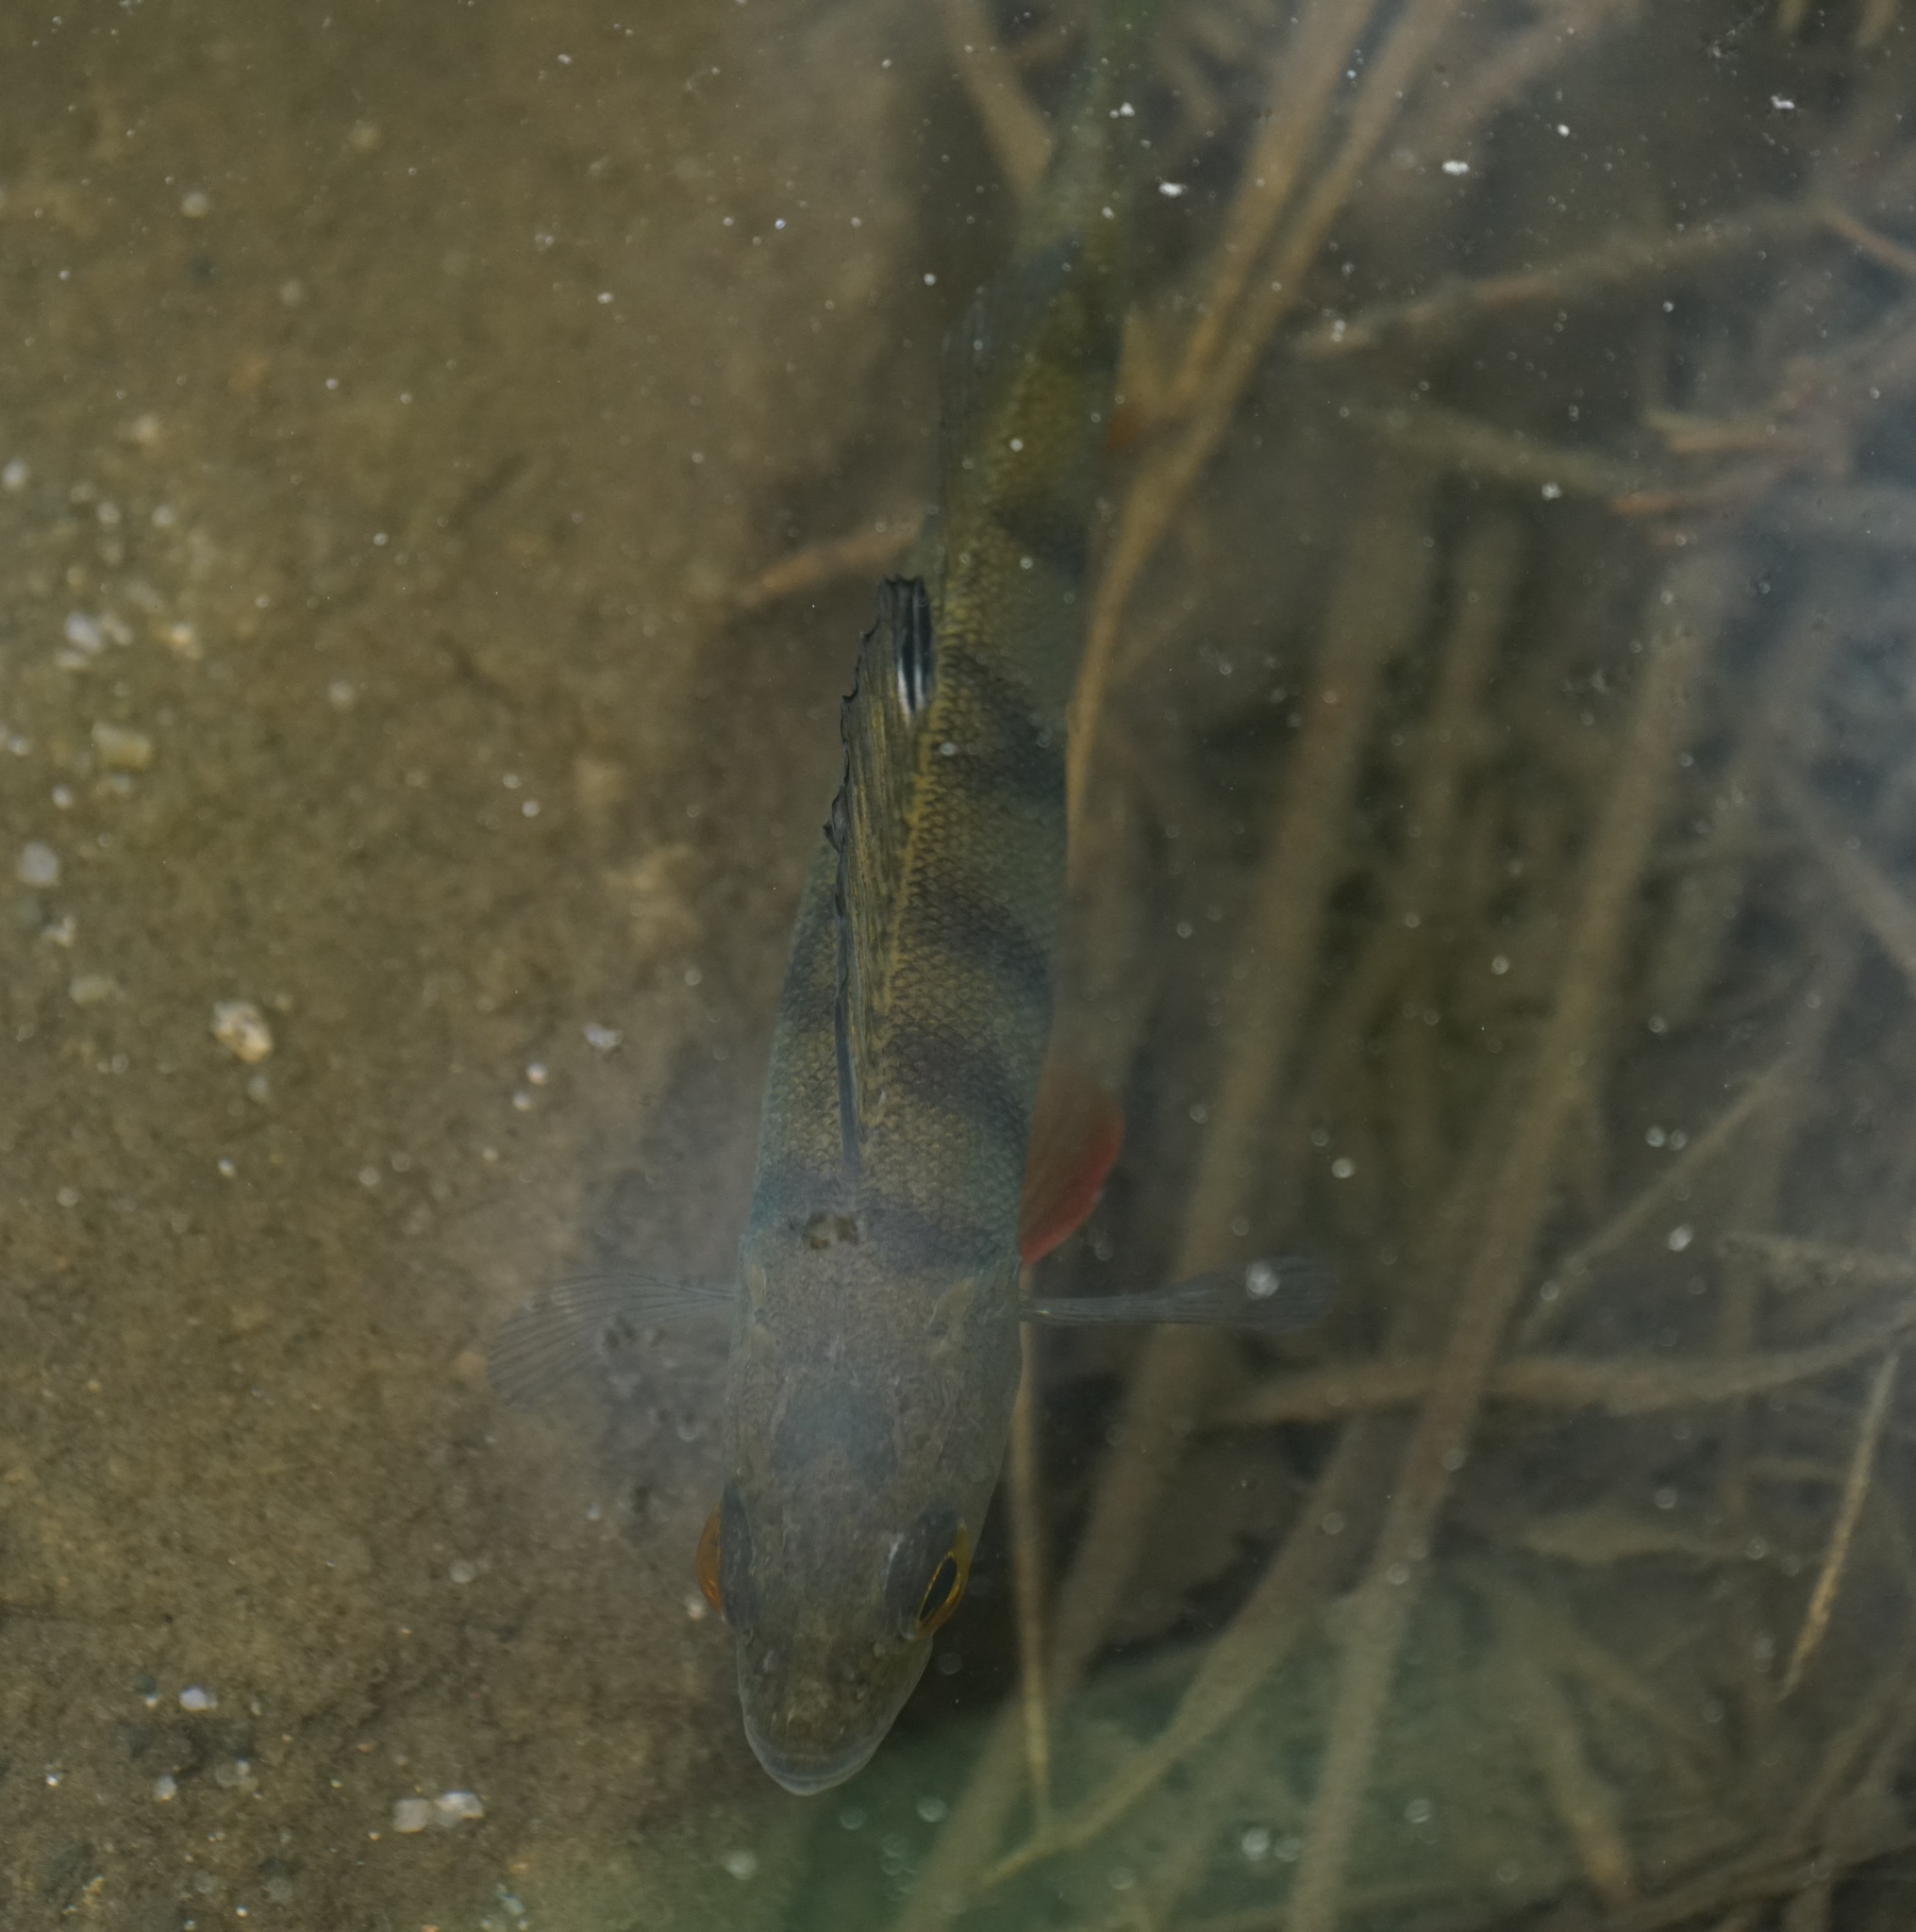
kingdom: Animalia
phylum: Chordata
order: Perciformes
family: Percidae
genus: Perca
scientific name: Perca fluviatilis
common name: Perch
